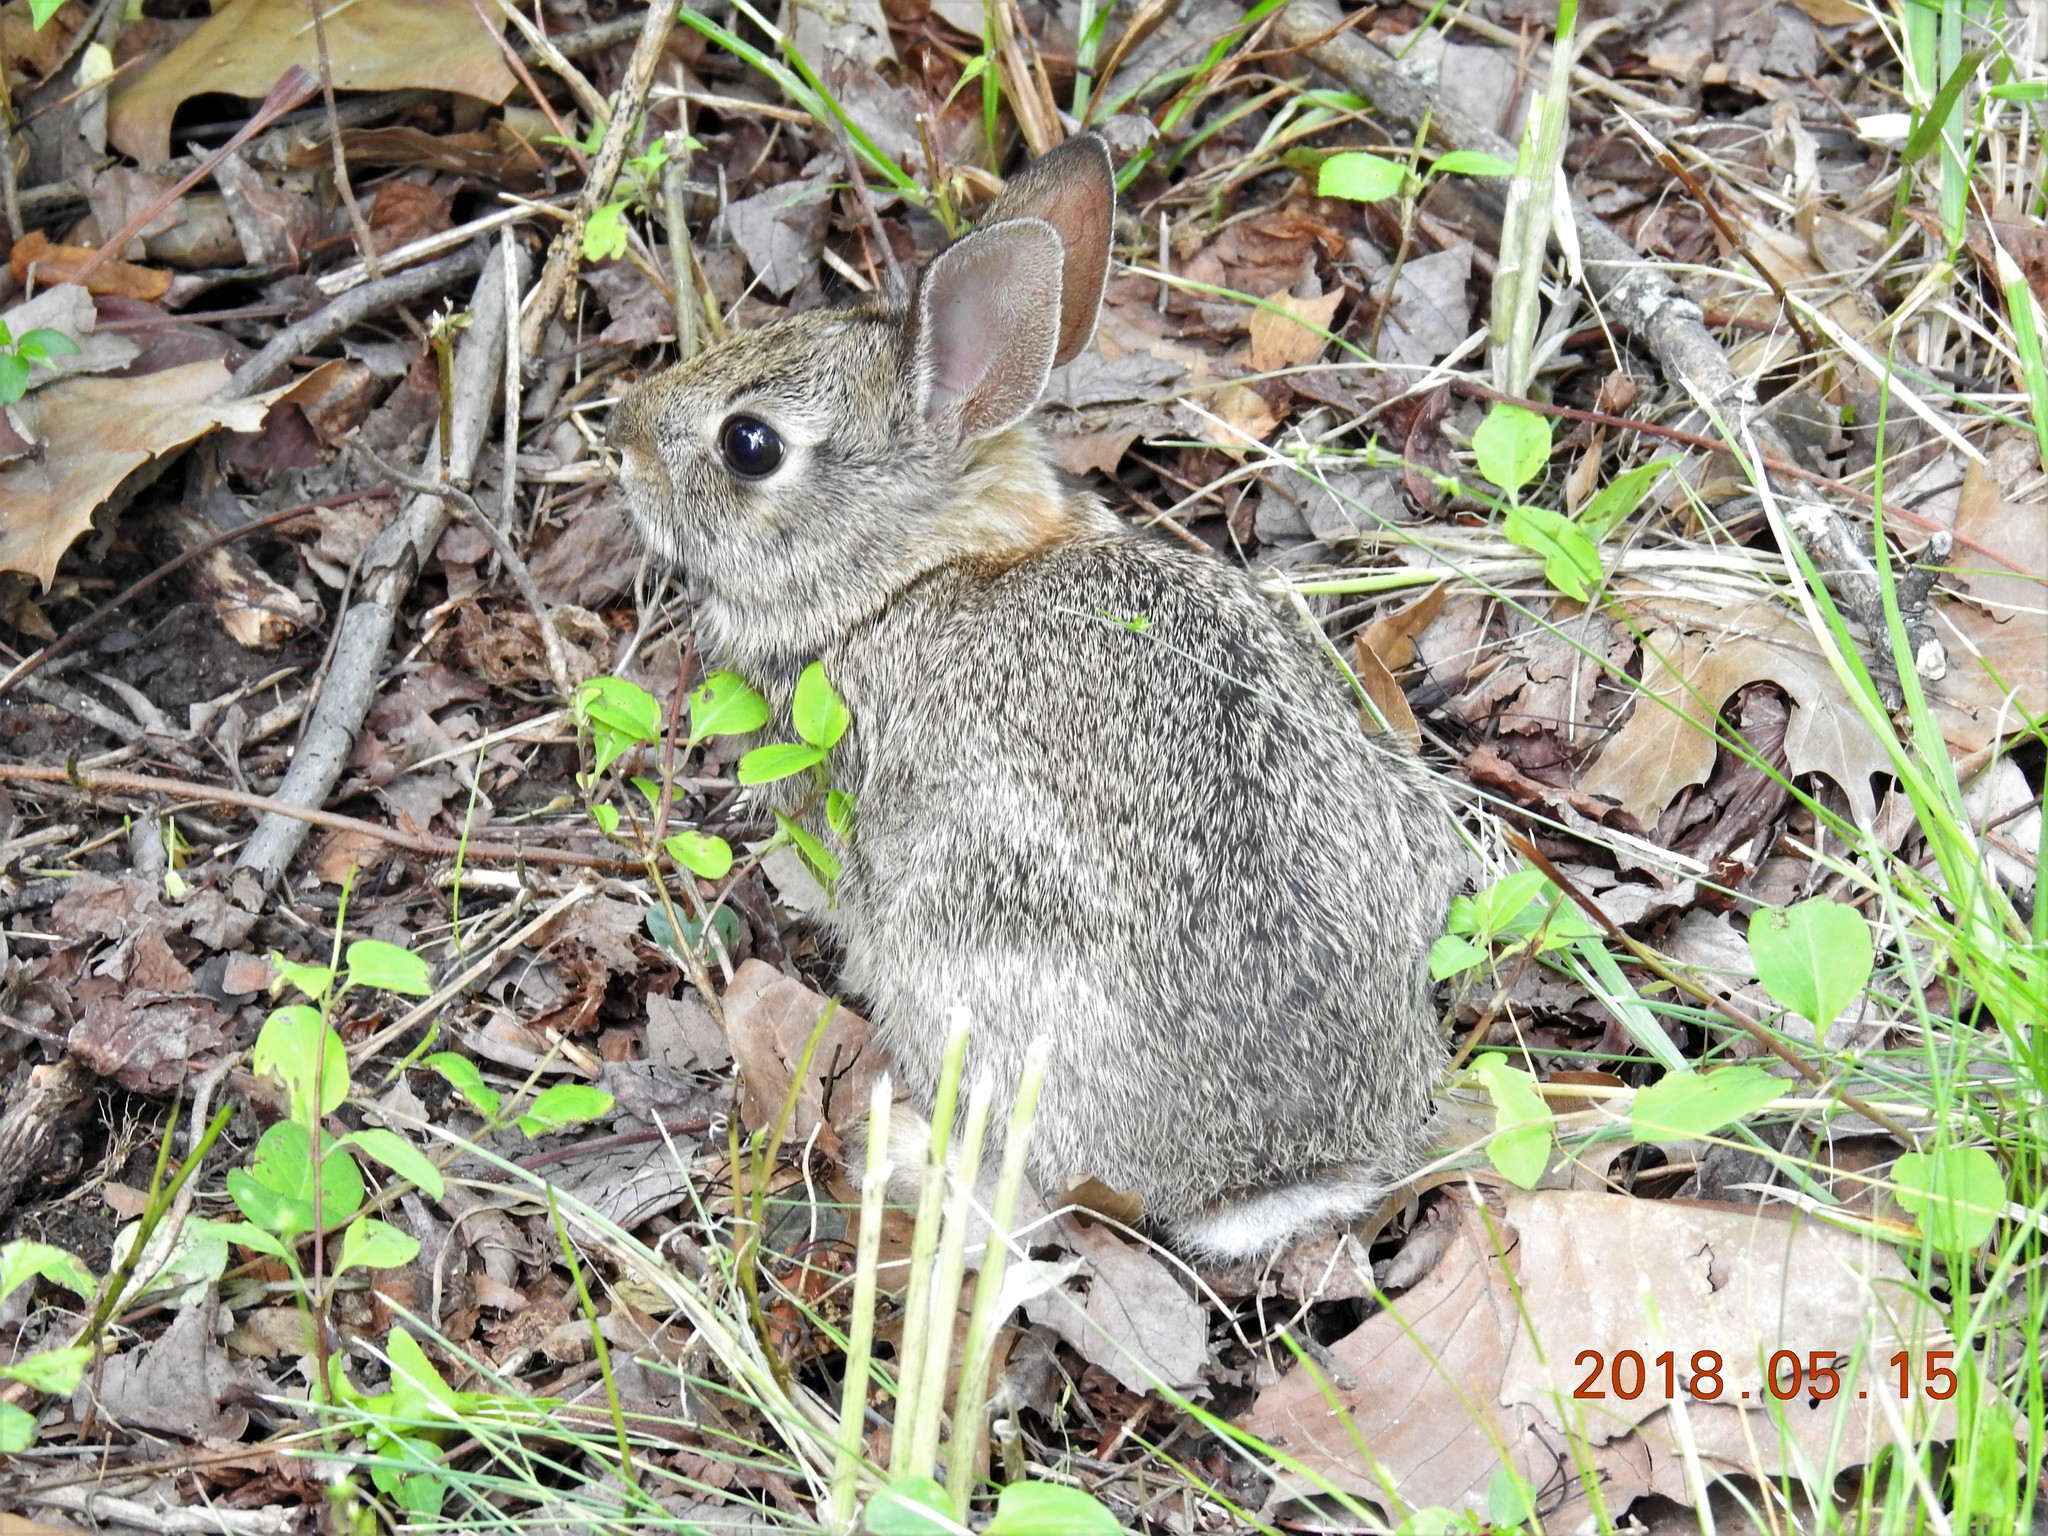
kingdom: Animalia
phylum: Chordata
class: Mammalia
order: Lagomorpha
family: Leporidae
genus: Sylvilagus
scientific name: Sylvilagus floridanus
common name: Eastern cottontail
